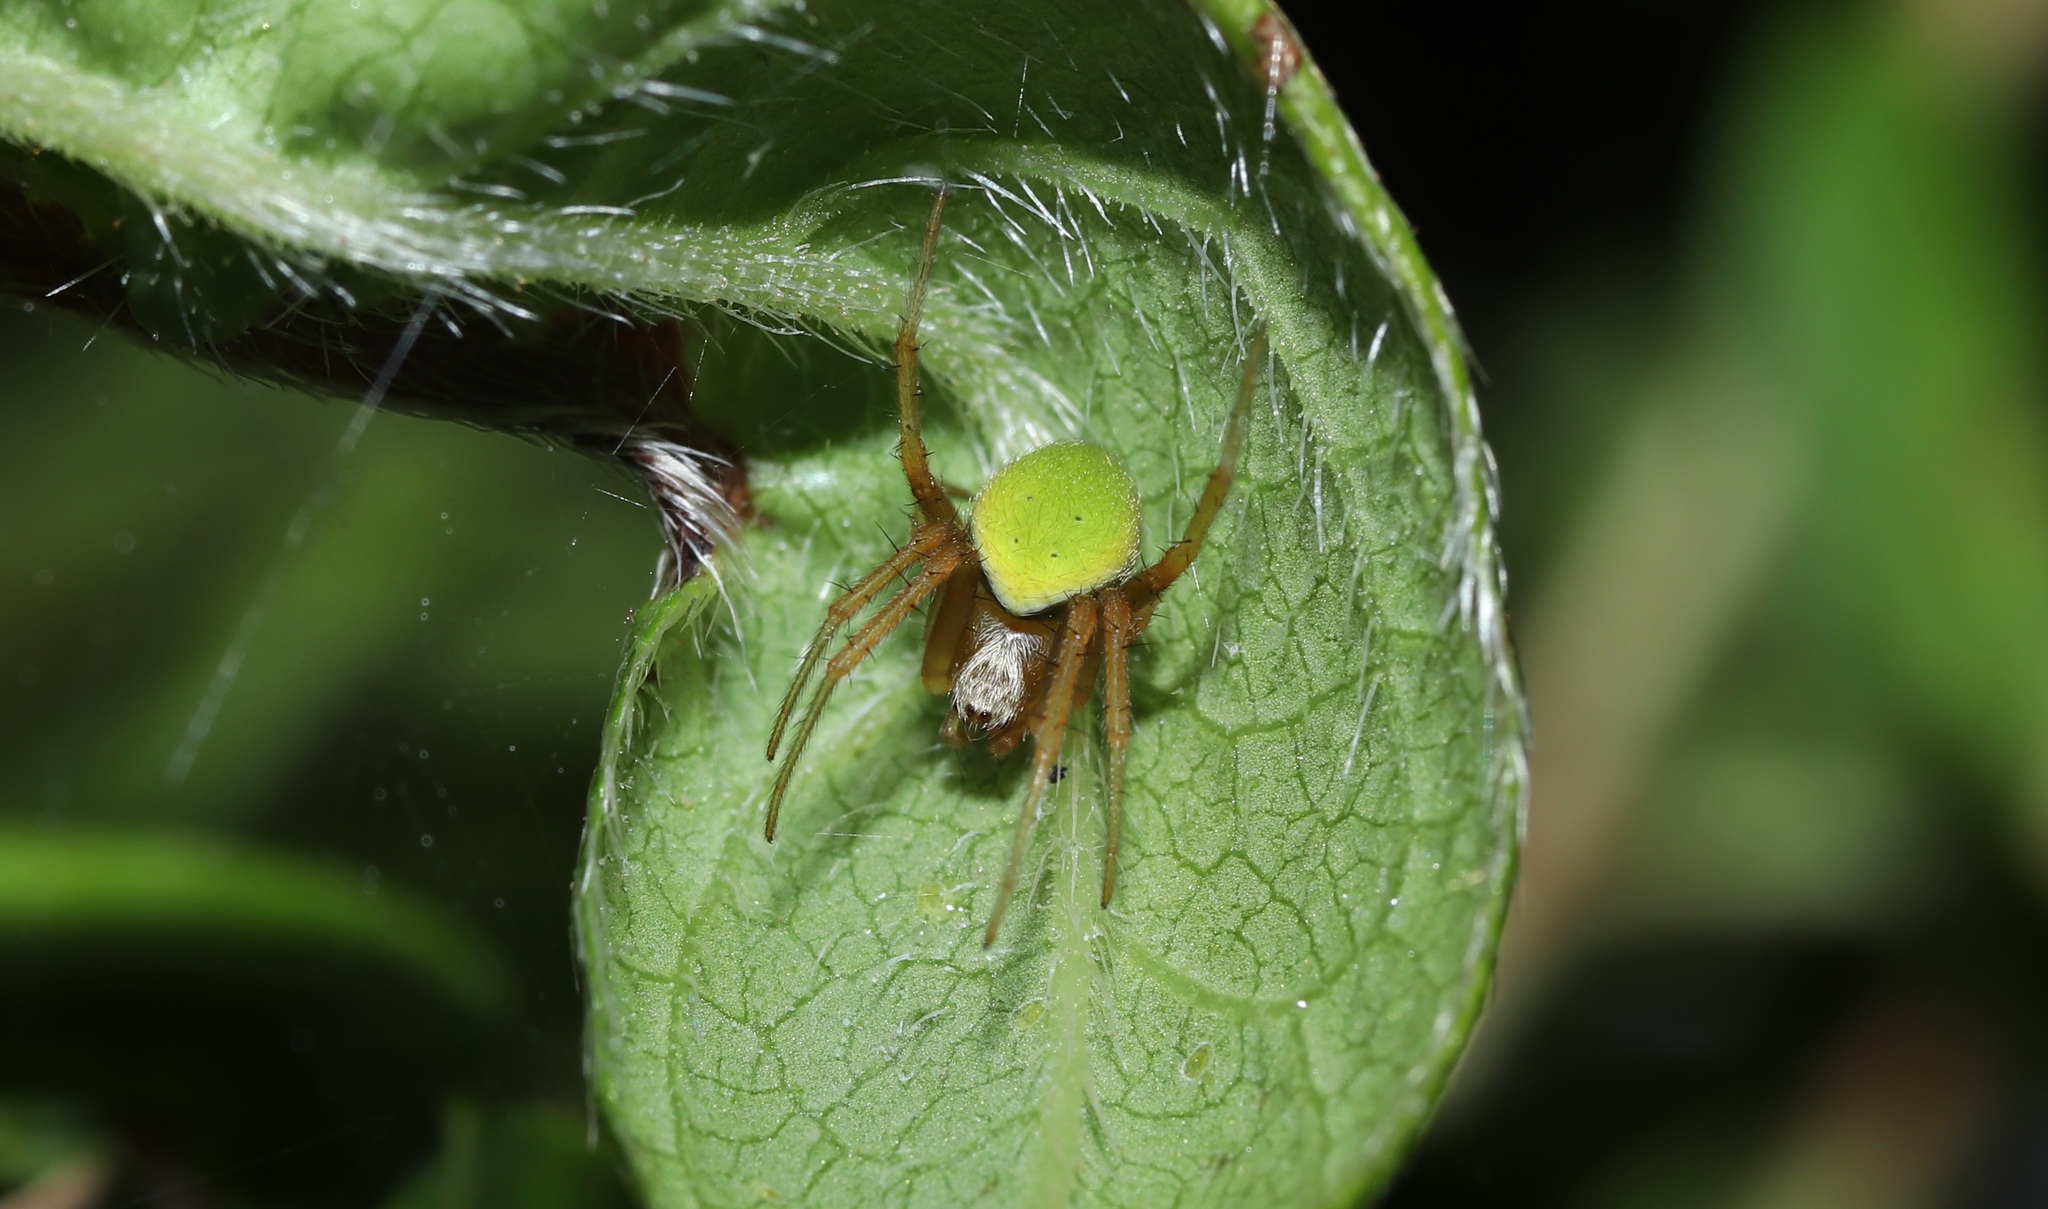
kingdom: Animalia
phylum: Arthropoda
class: Arachnida
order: Araneae
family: Araneidae
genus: Neoscona
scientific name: Neoscona mellotteei
